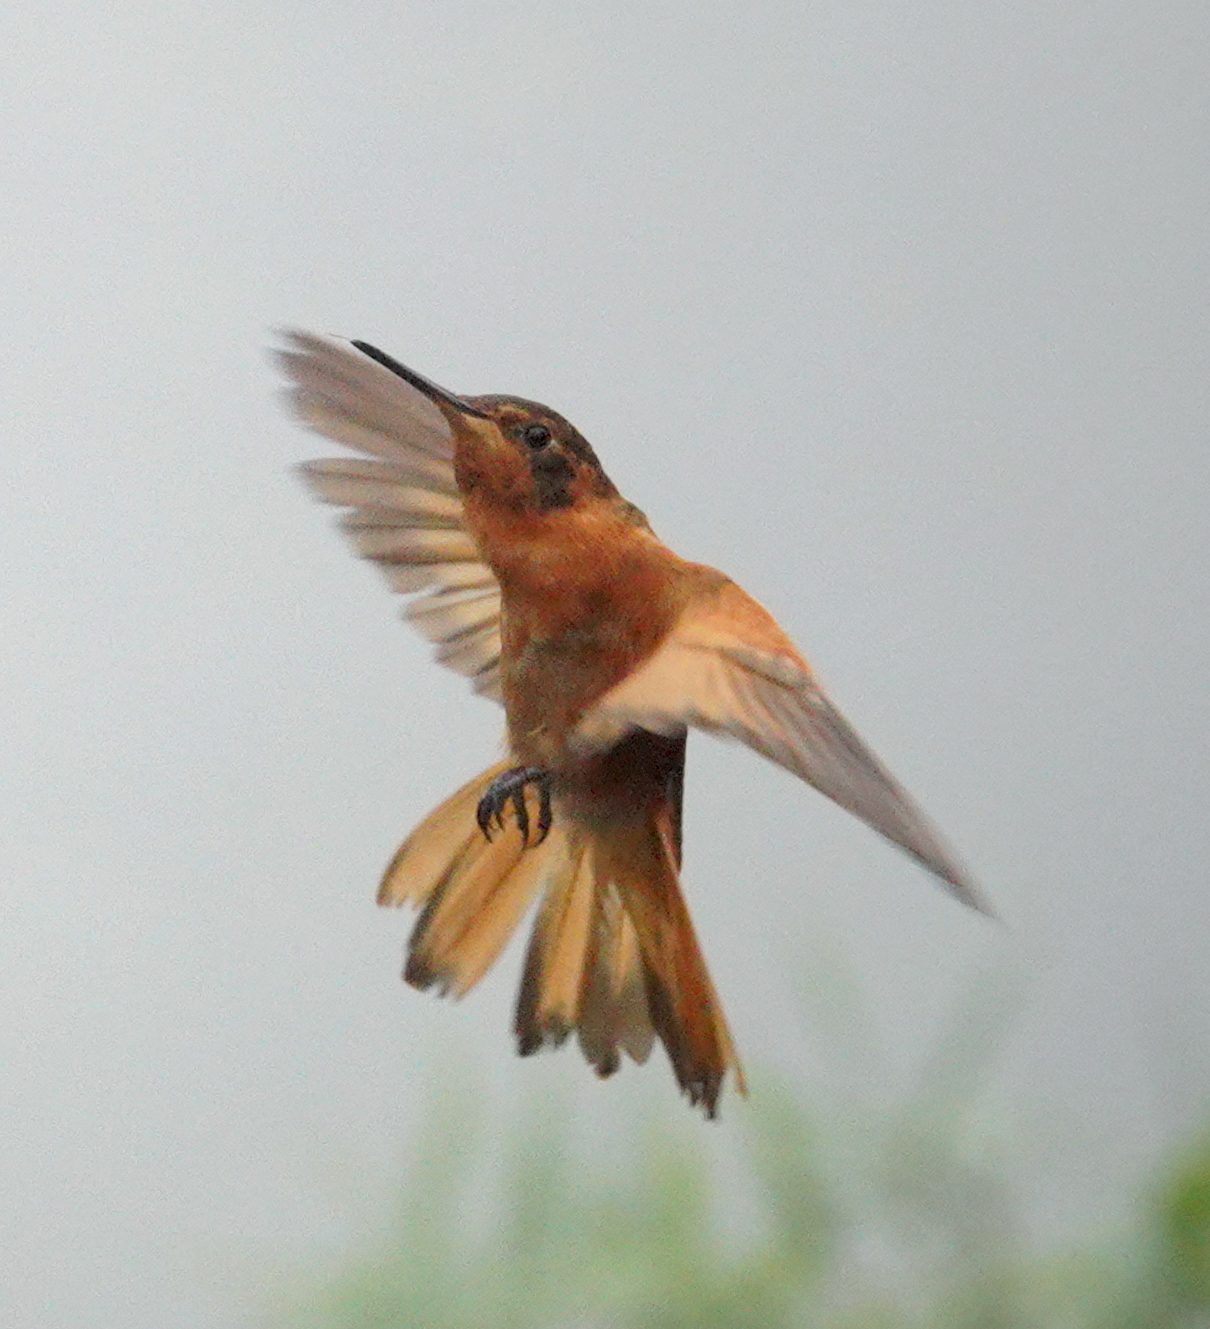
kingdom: Animalia
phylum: Chordata
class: Aves
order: Apodiformes
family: Trochilidae
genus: Aglaeactis
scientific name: Aglaeactis cupripennis
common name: Shining sunbeam
